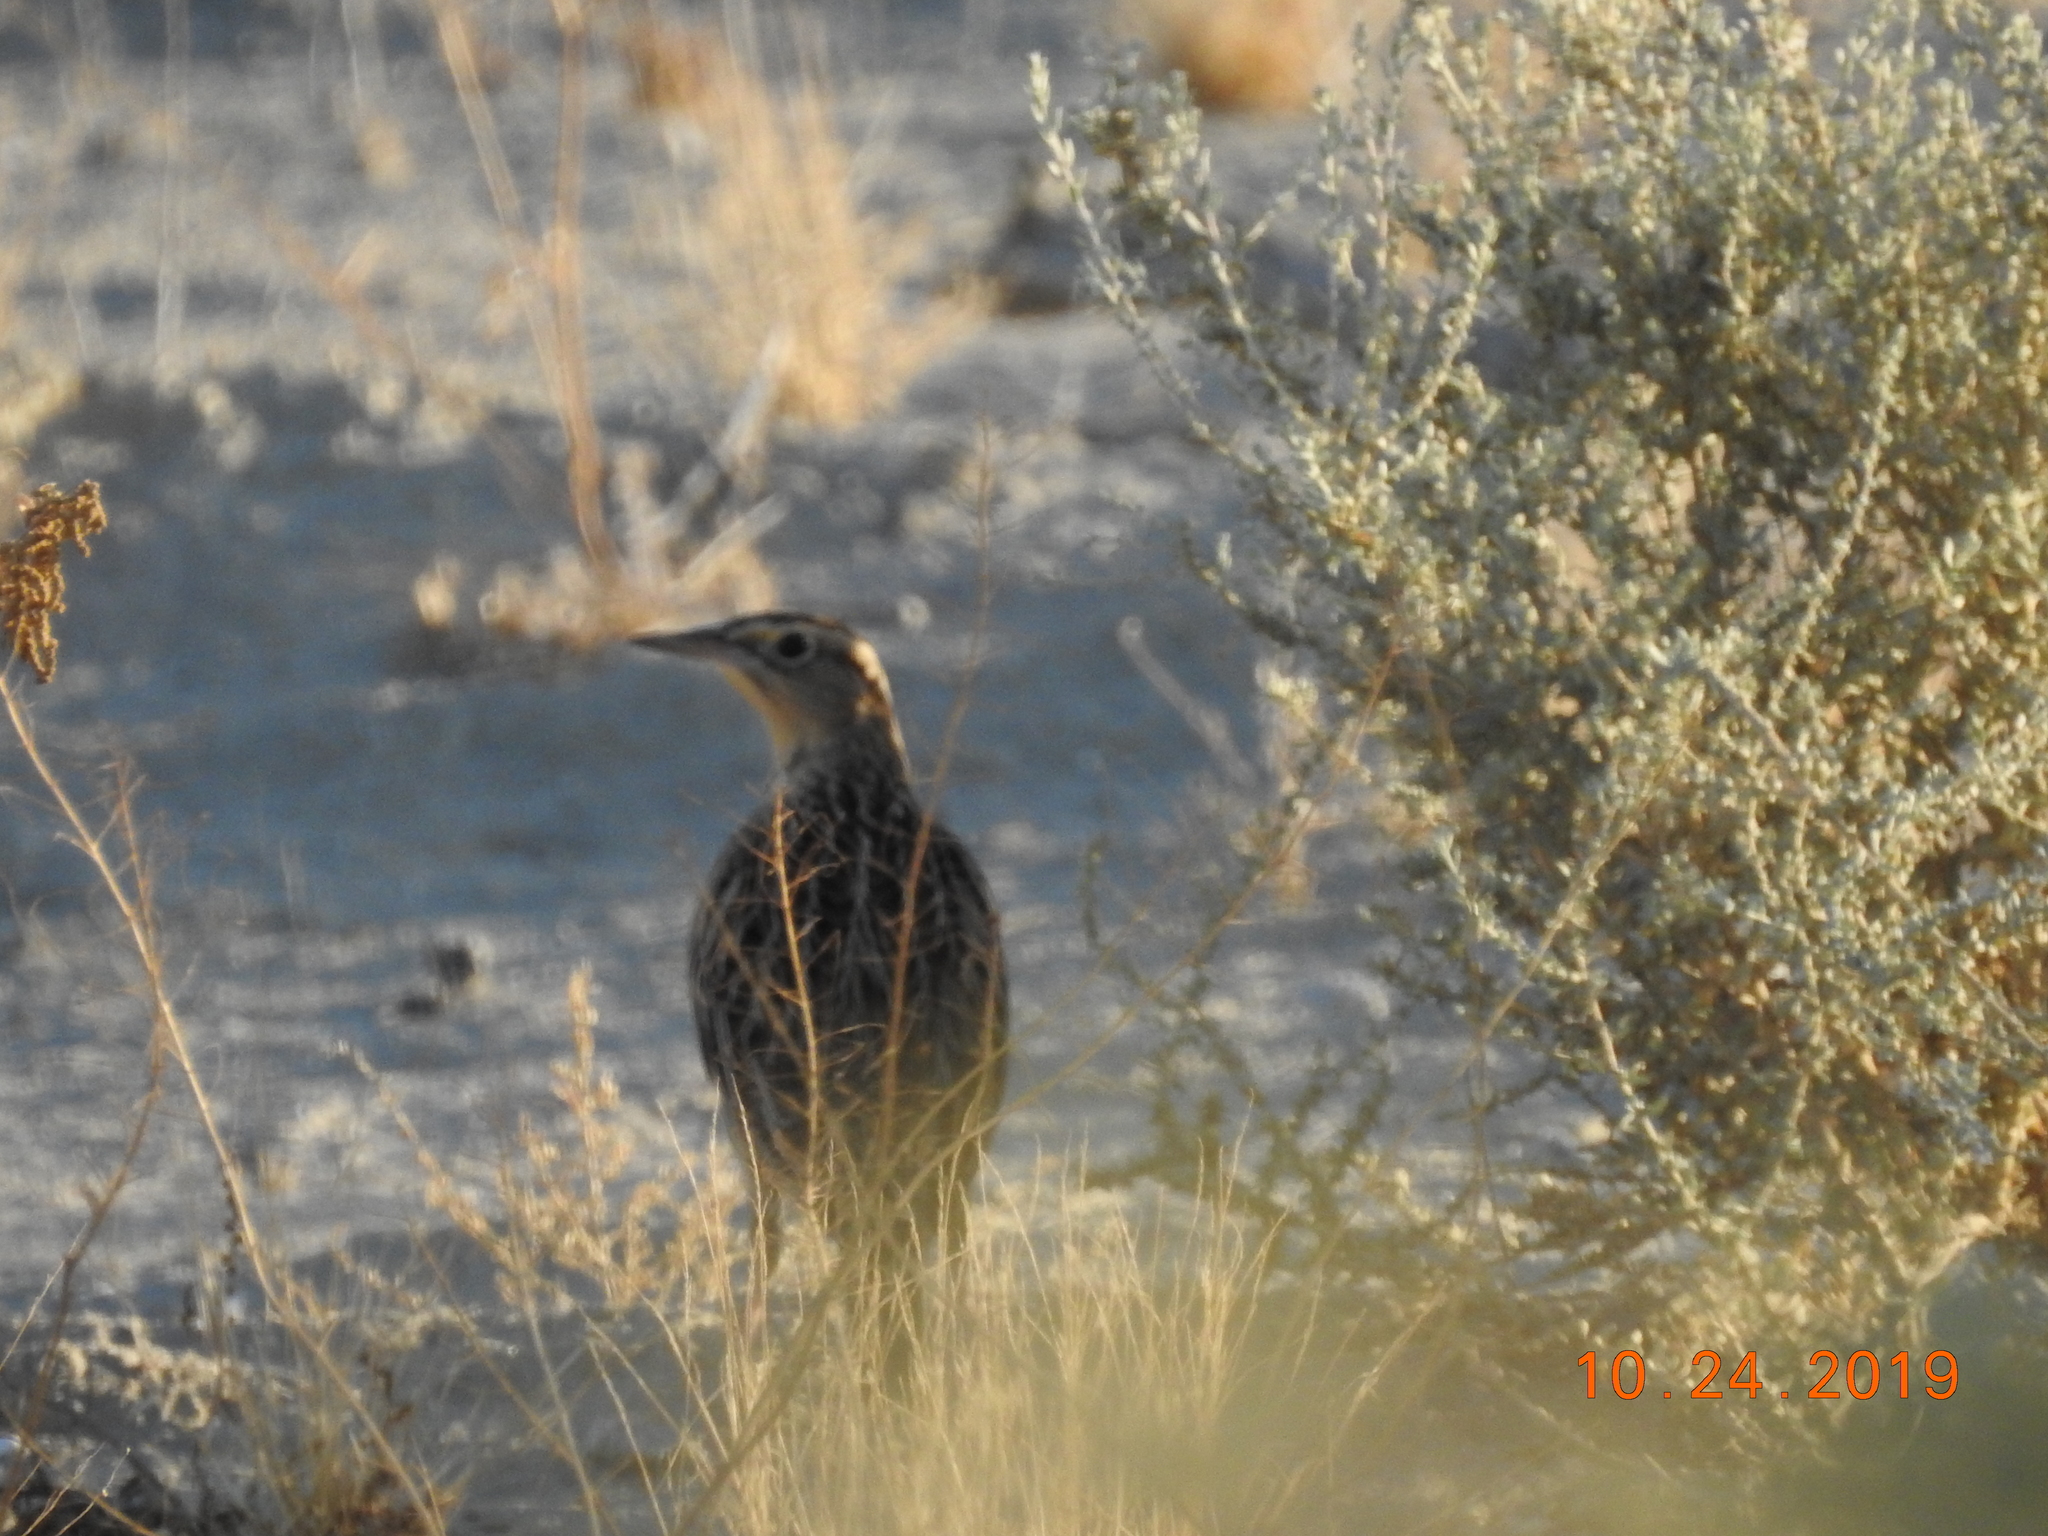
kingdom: Animalia
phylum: Chordata
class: Aves
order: Passeriformes
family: Icteridae
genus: Sturnella
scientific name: Sturnella neglecta
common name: Western meadowlark
